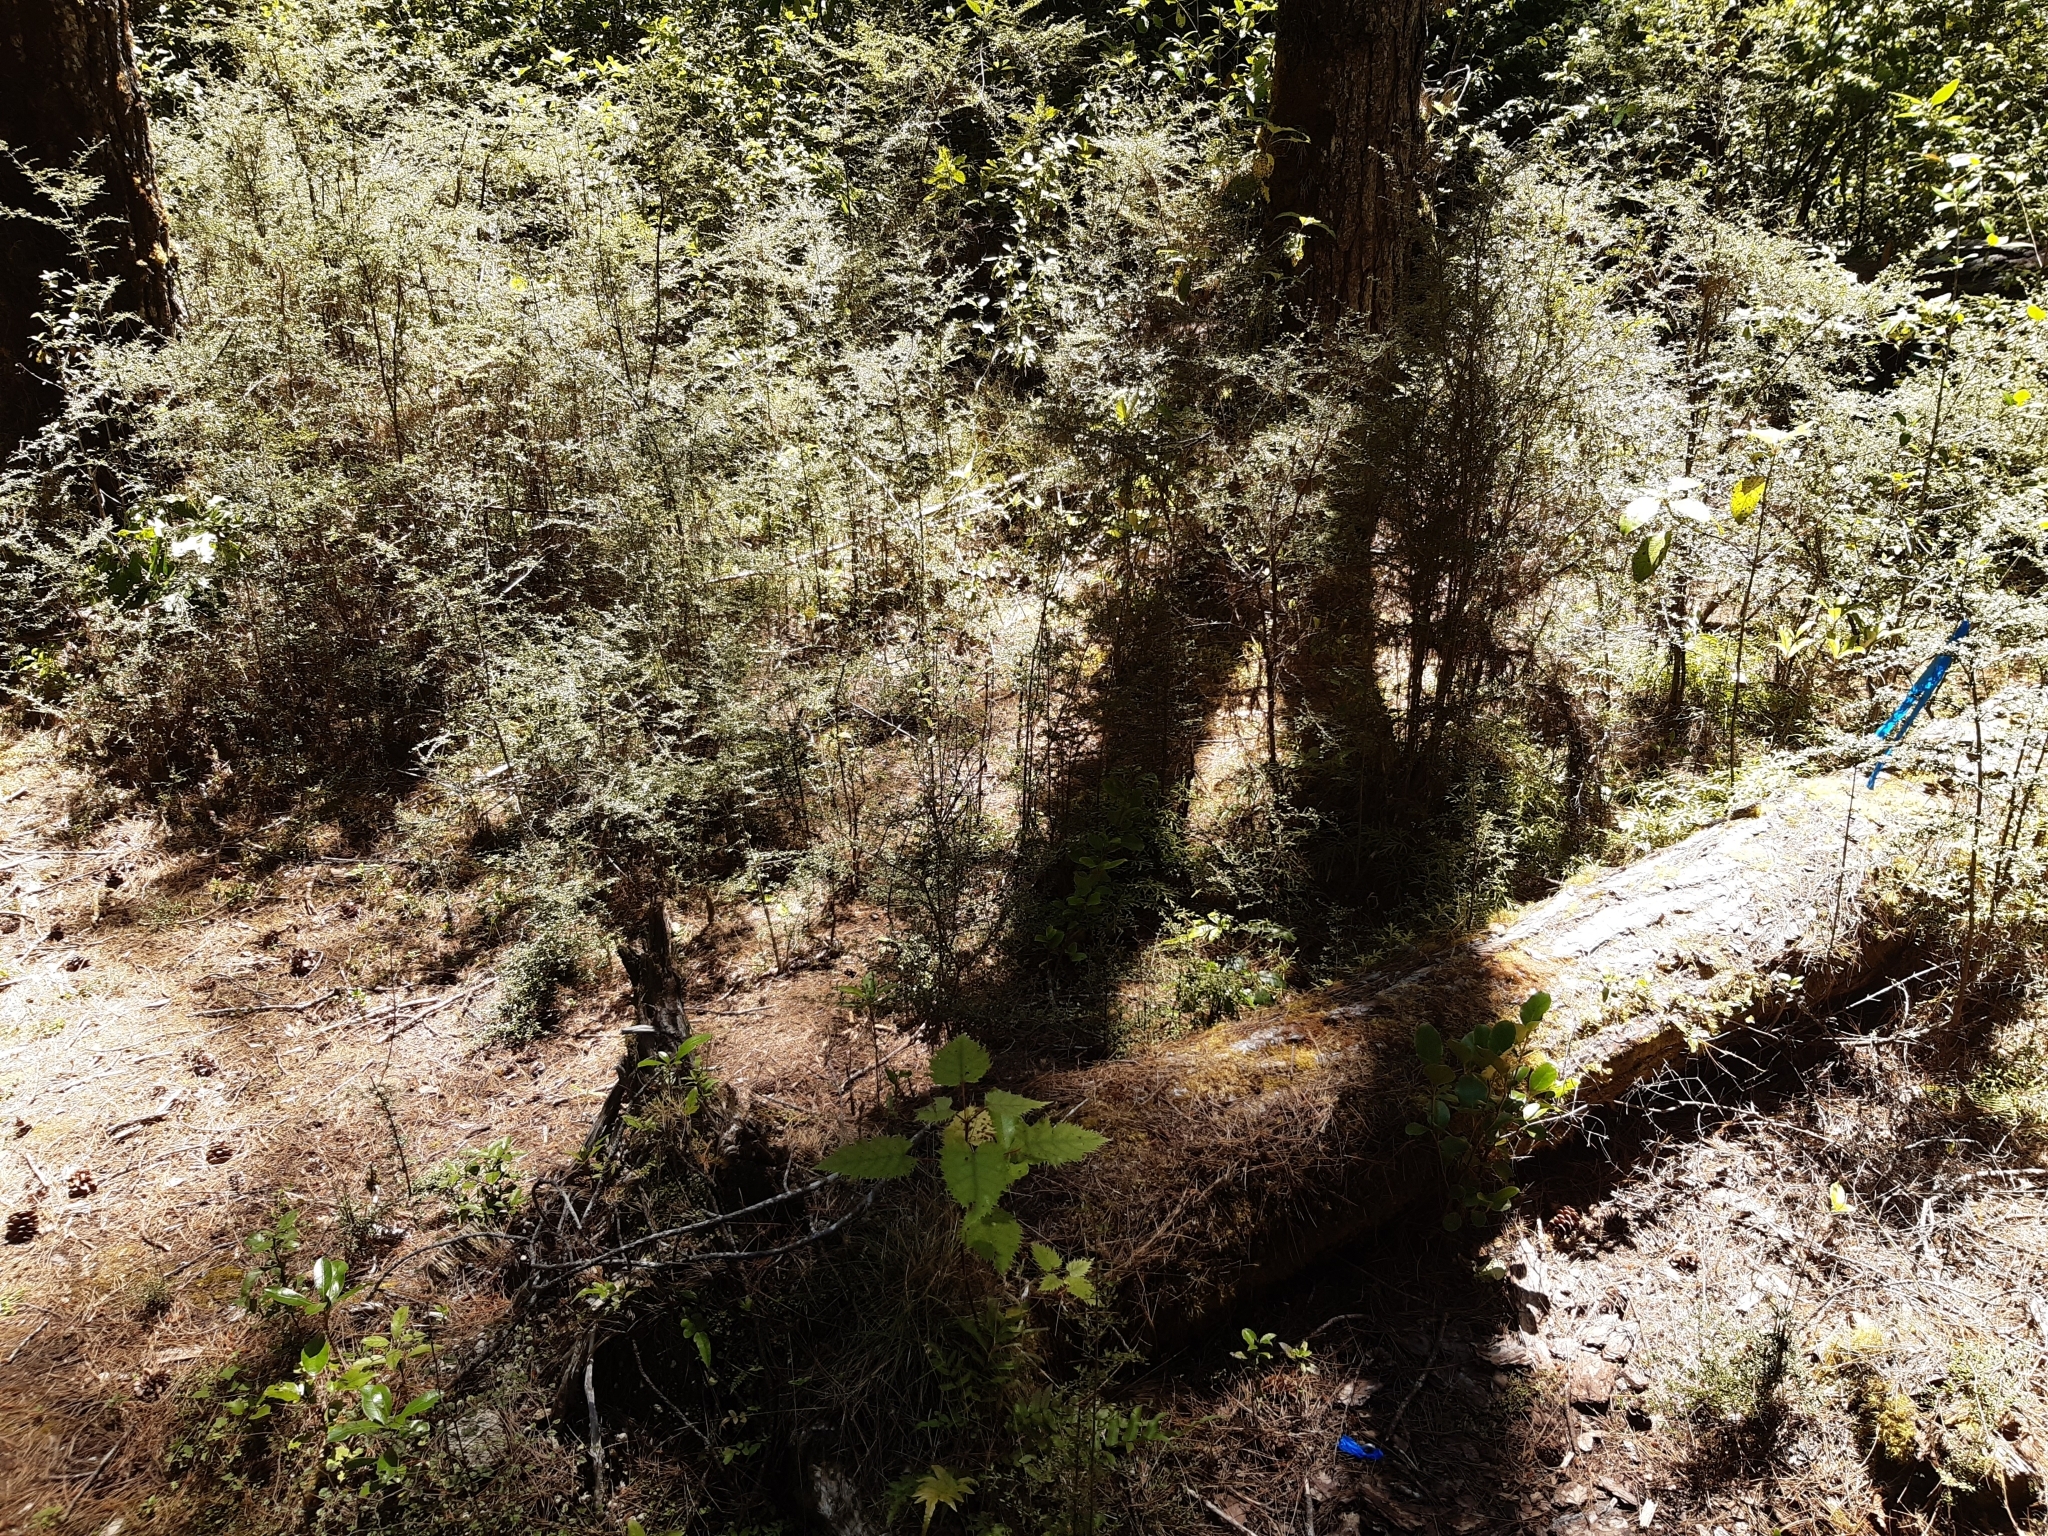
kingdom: Plantae
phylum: Tracheophyta
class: Magnoliopsida
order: Gentianales
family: Rubiaceae
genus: Coprosma
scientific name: Coprosma dumosa
